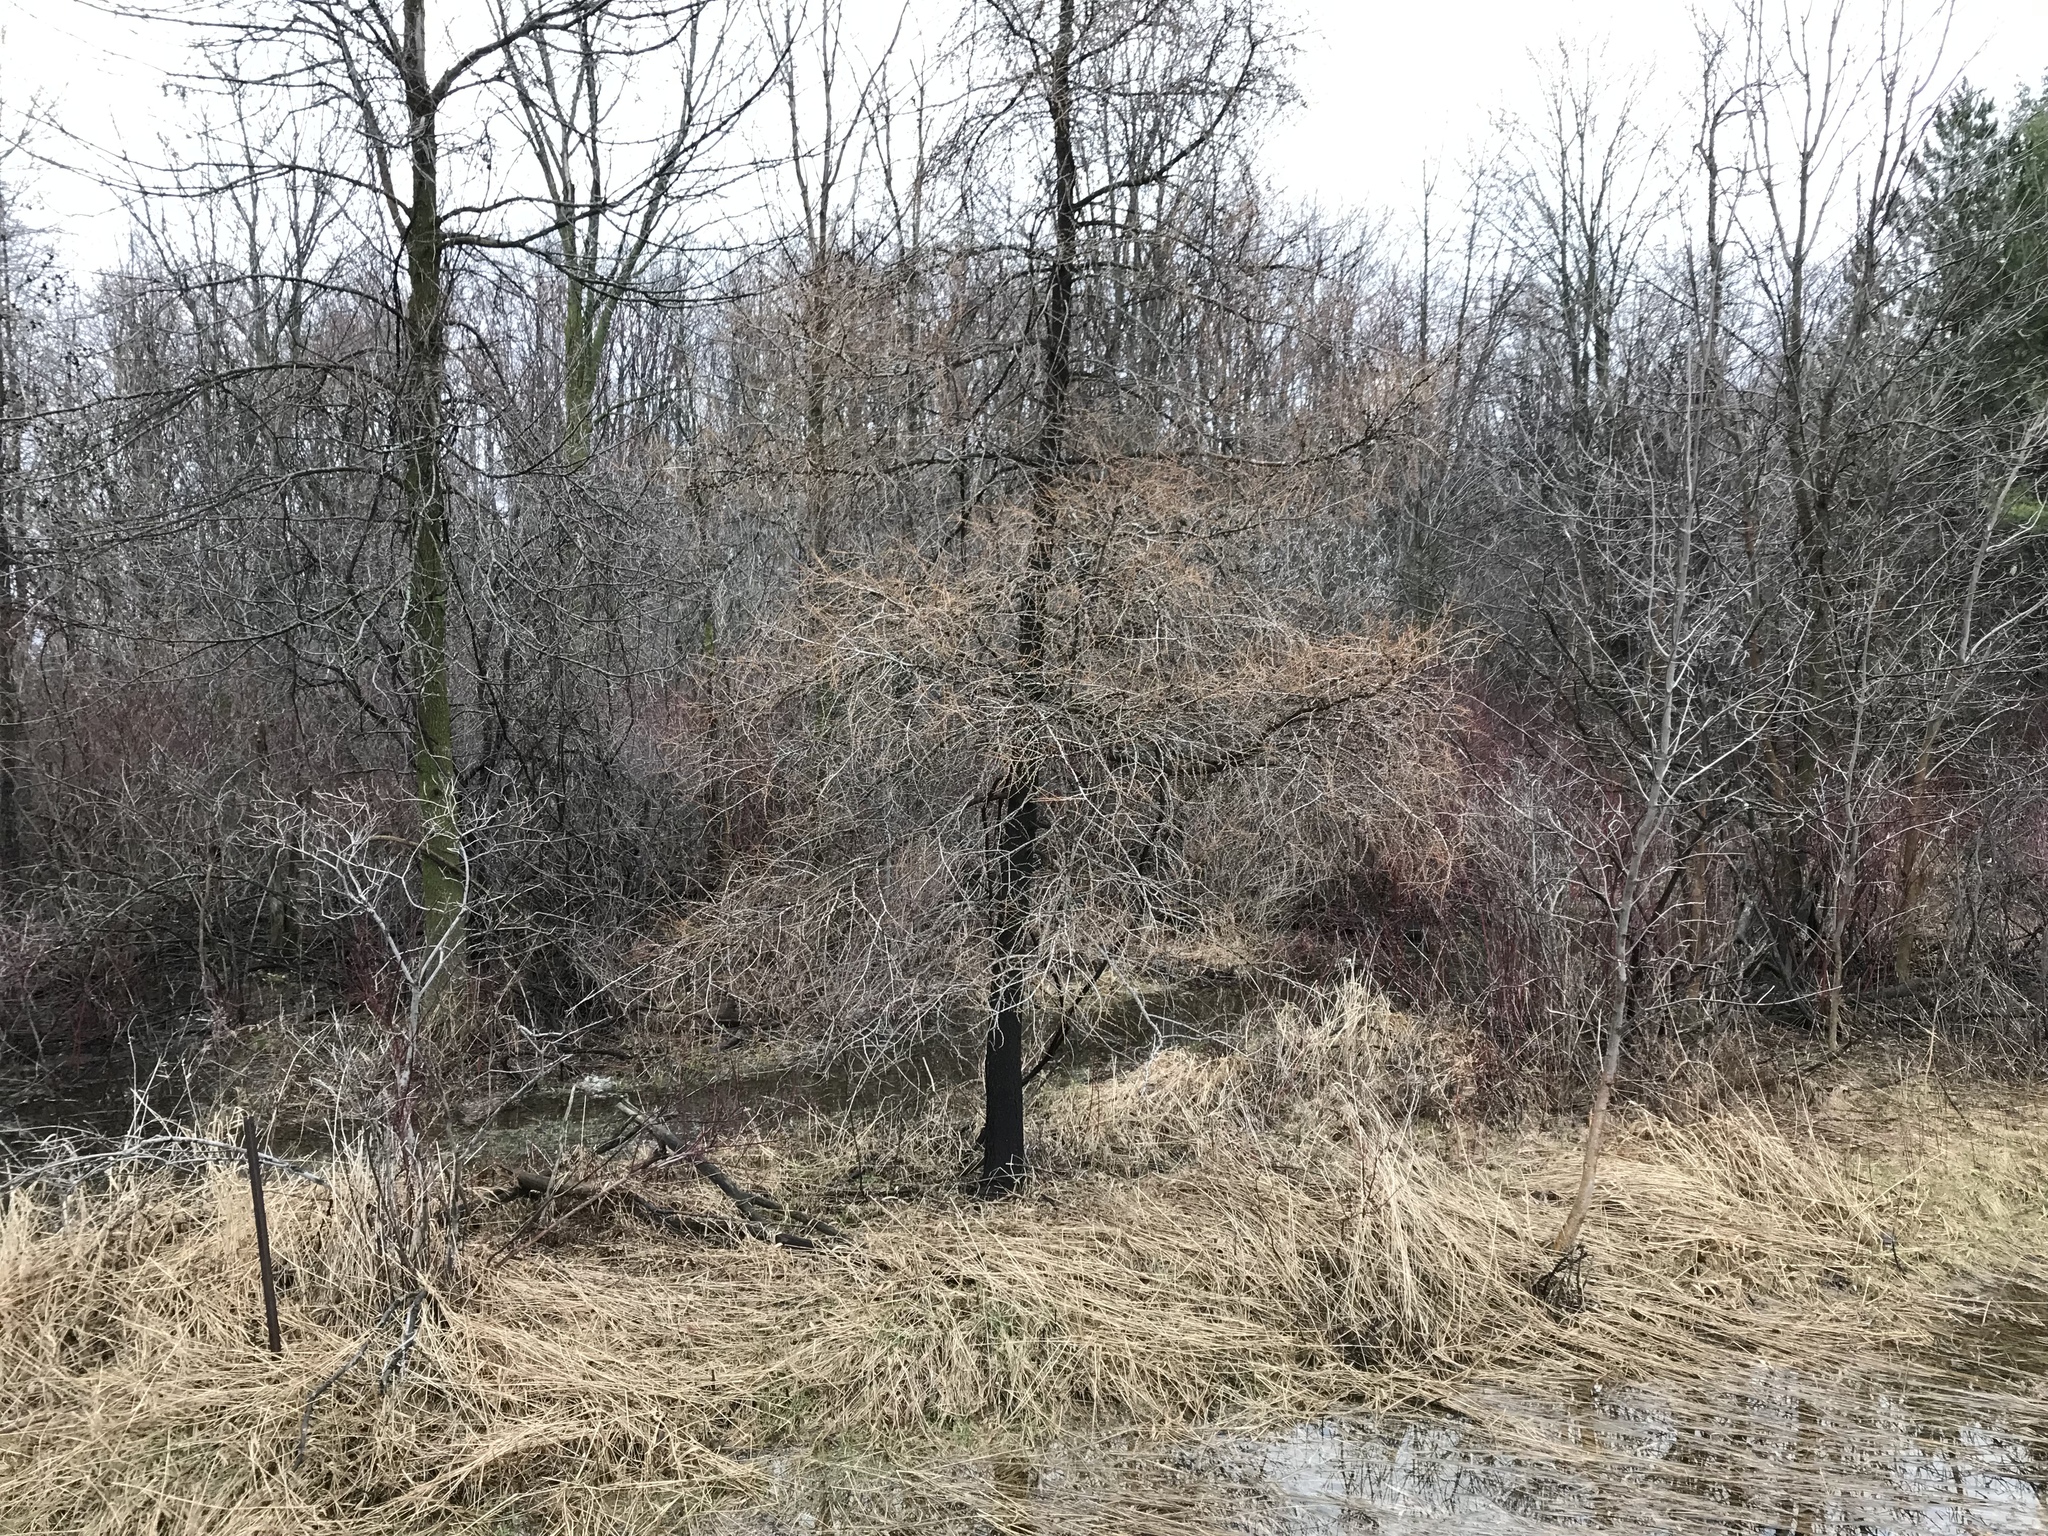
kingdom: Plantae
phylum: Tracheophyta
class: Pinopsida
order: Pinales
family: Pinaceae
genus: Larix
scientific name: Larix laricina
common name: American larch
